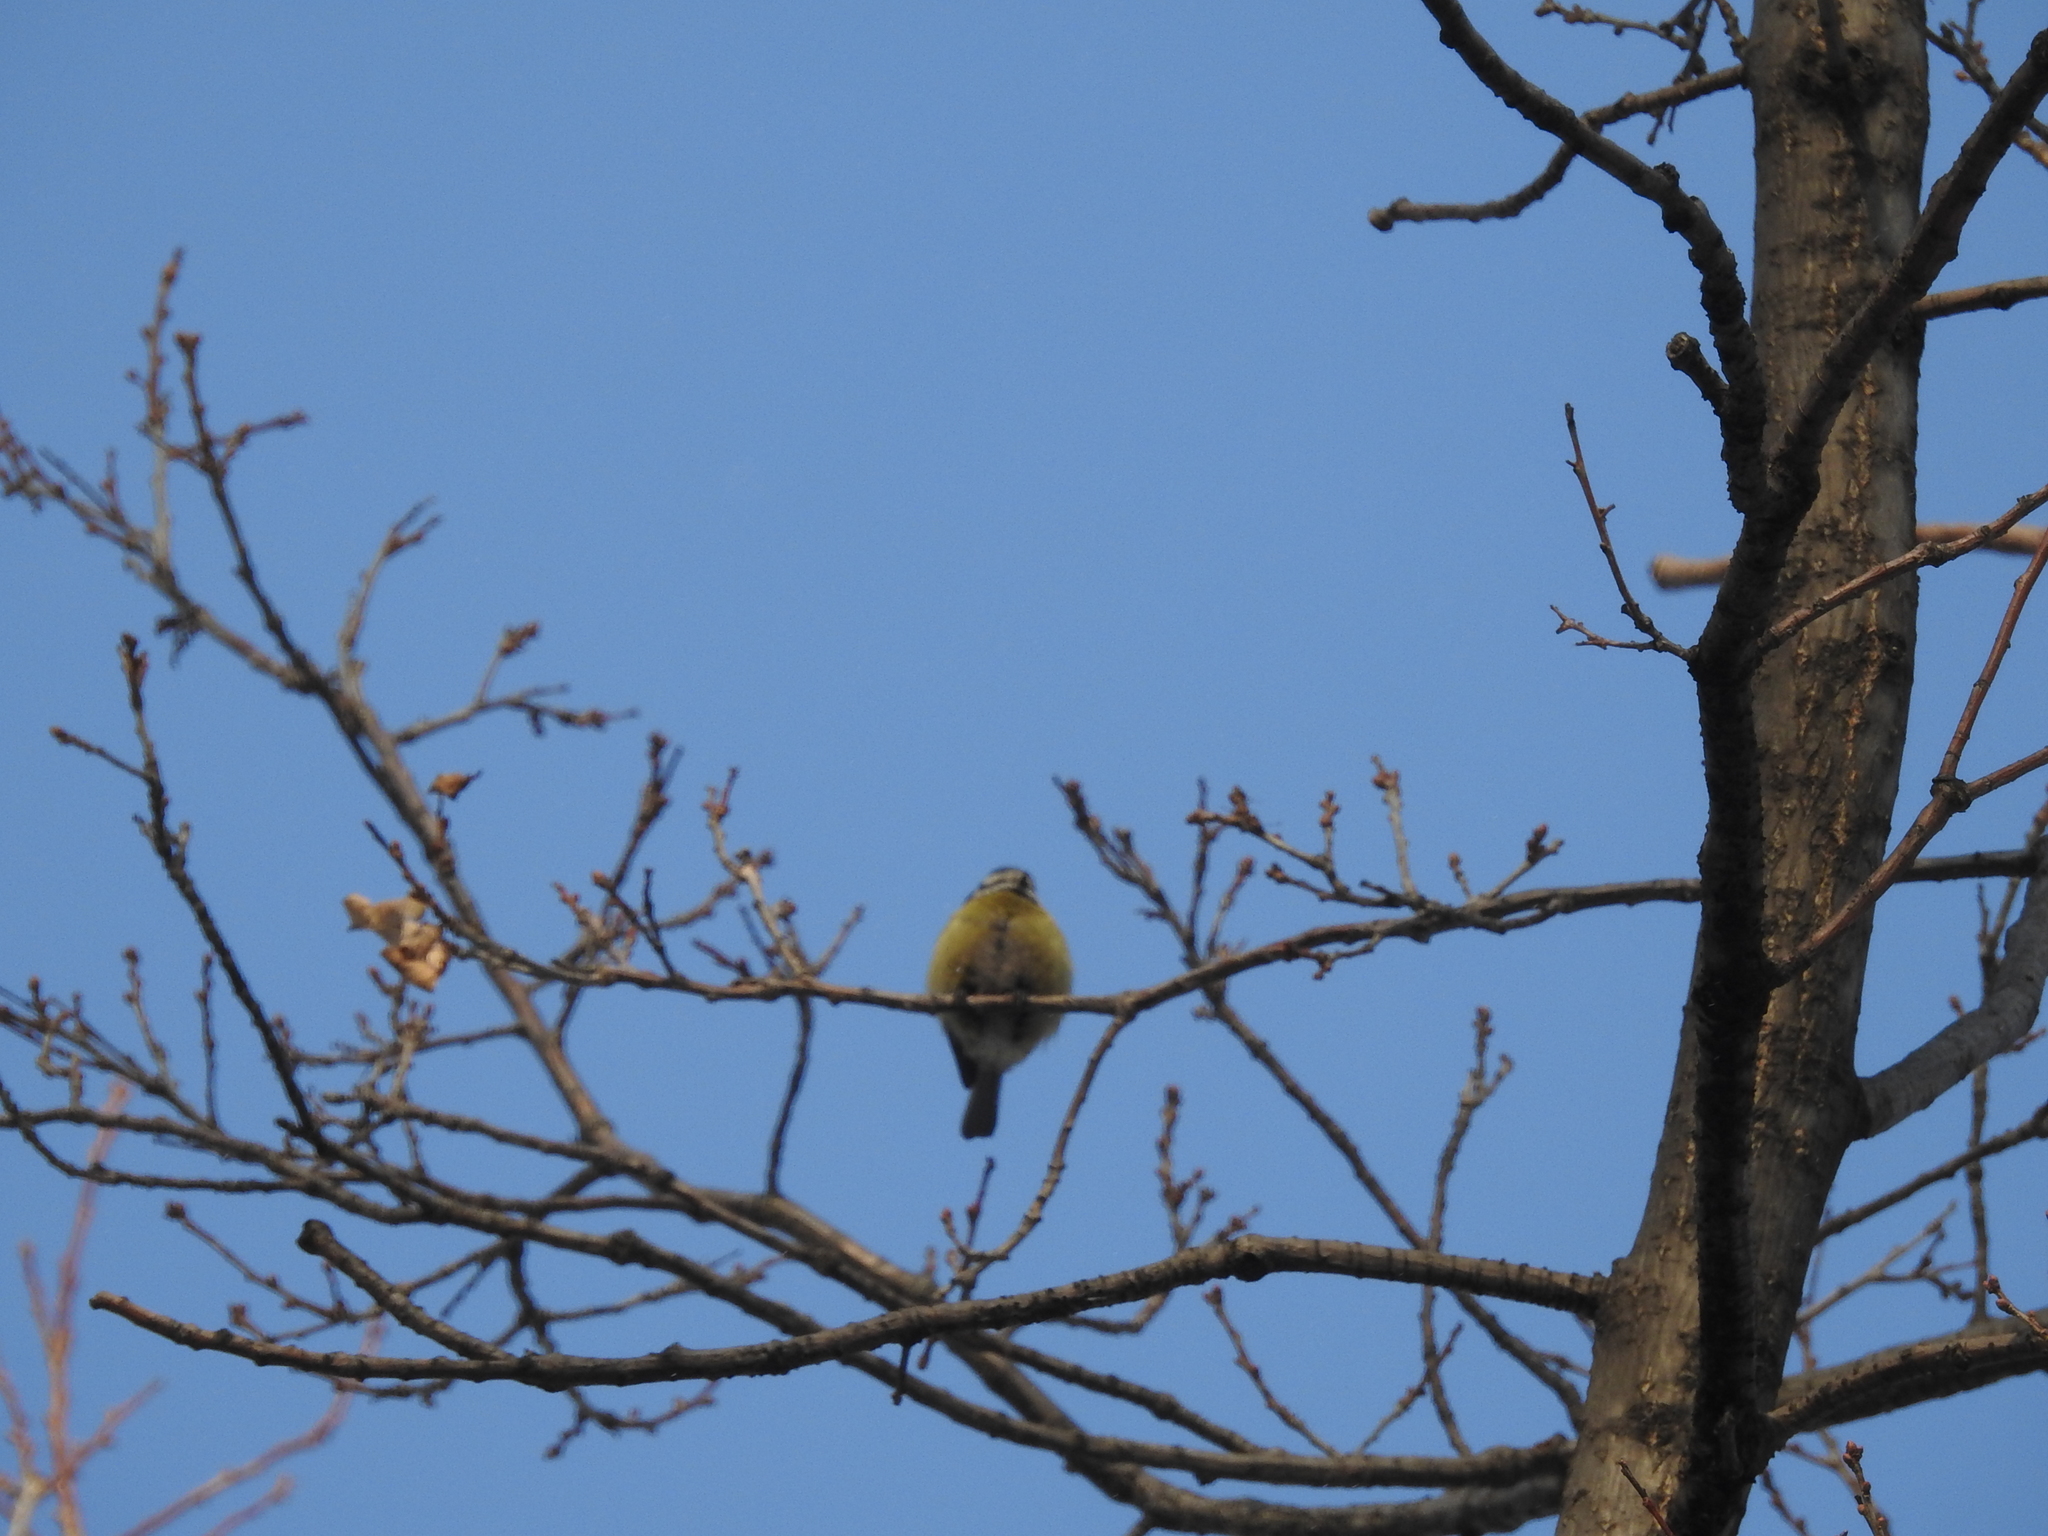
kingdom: Animalia
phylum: Chordata
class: Aves
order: Passeriformes
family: Paridae
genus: Cyanistes
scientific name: Cyanistes caeruleus
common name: Eurasian blue tit
